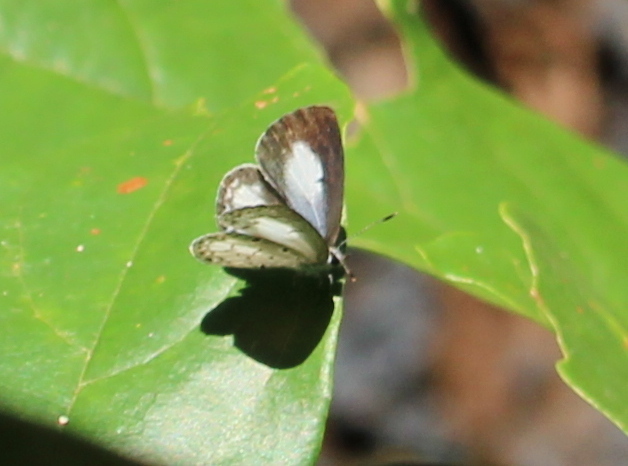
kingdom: Animalia
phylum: Arthropoda
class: Insecta
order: Lepidoptera
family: Lycaenidae
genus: Acytolepis
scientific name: Acytolepis puspa
